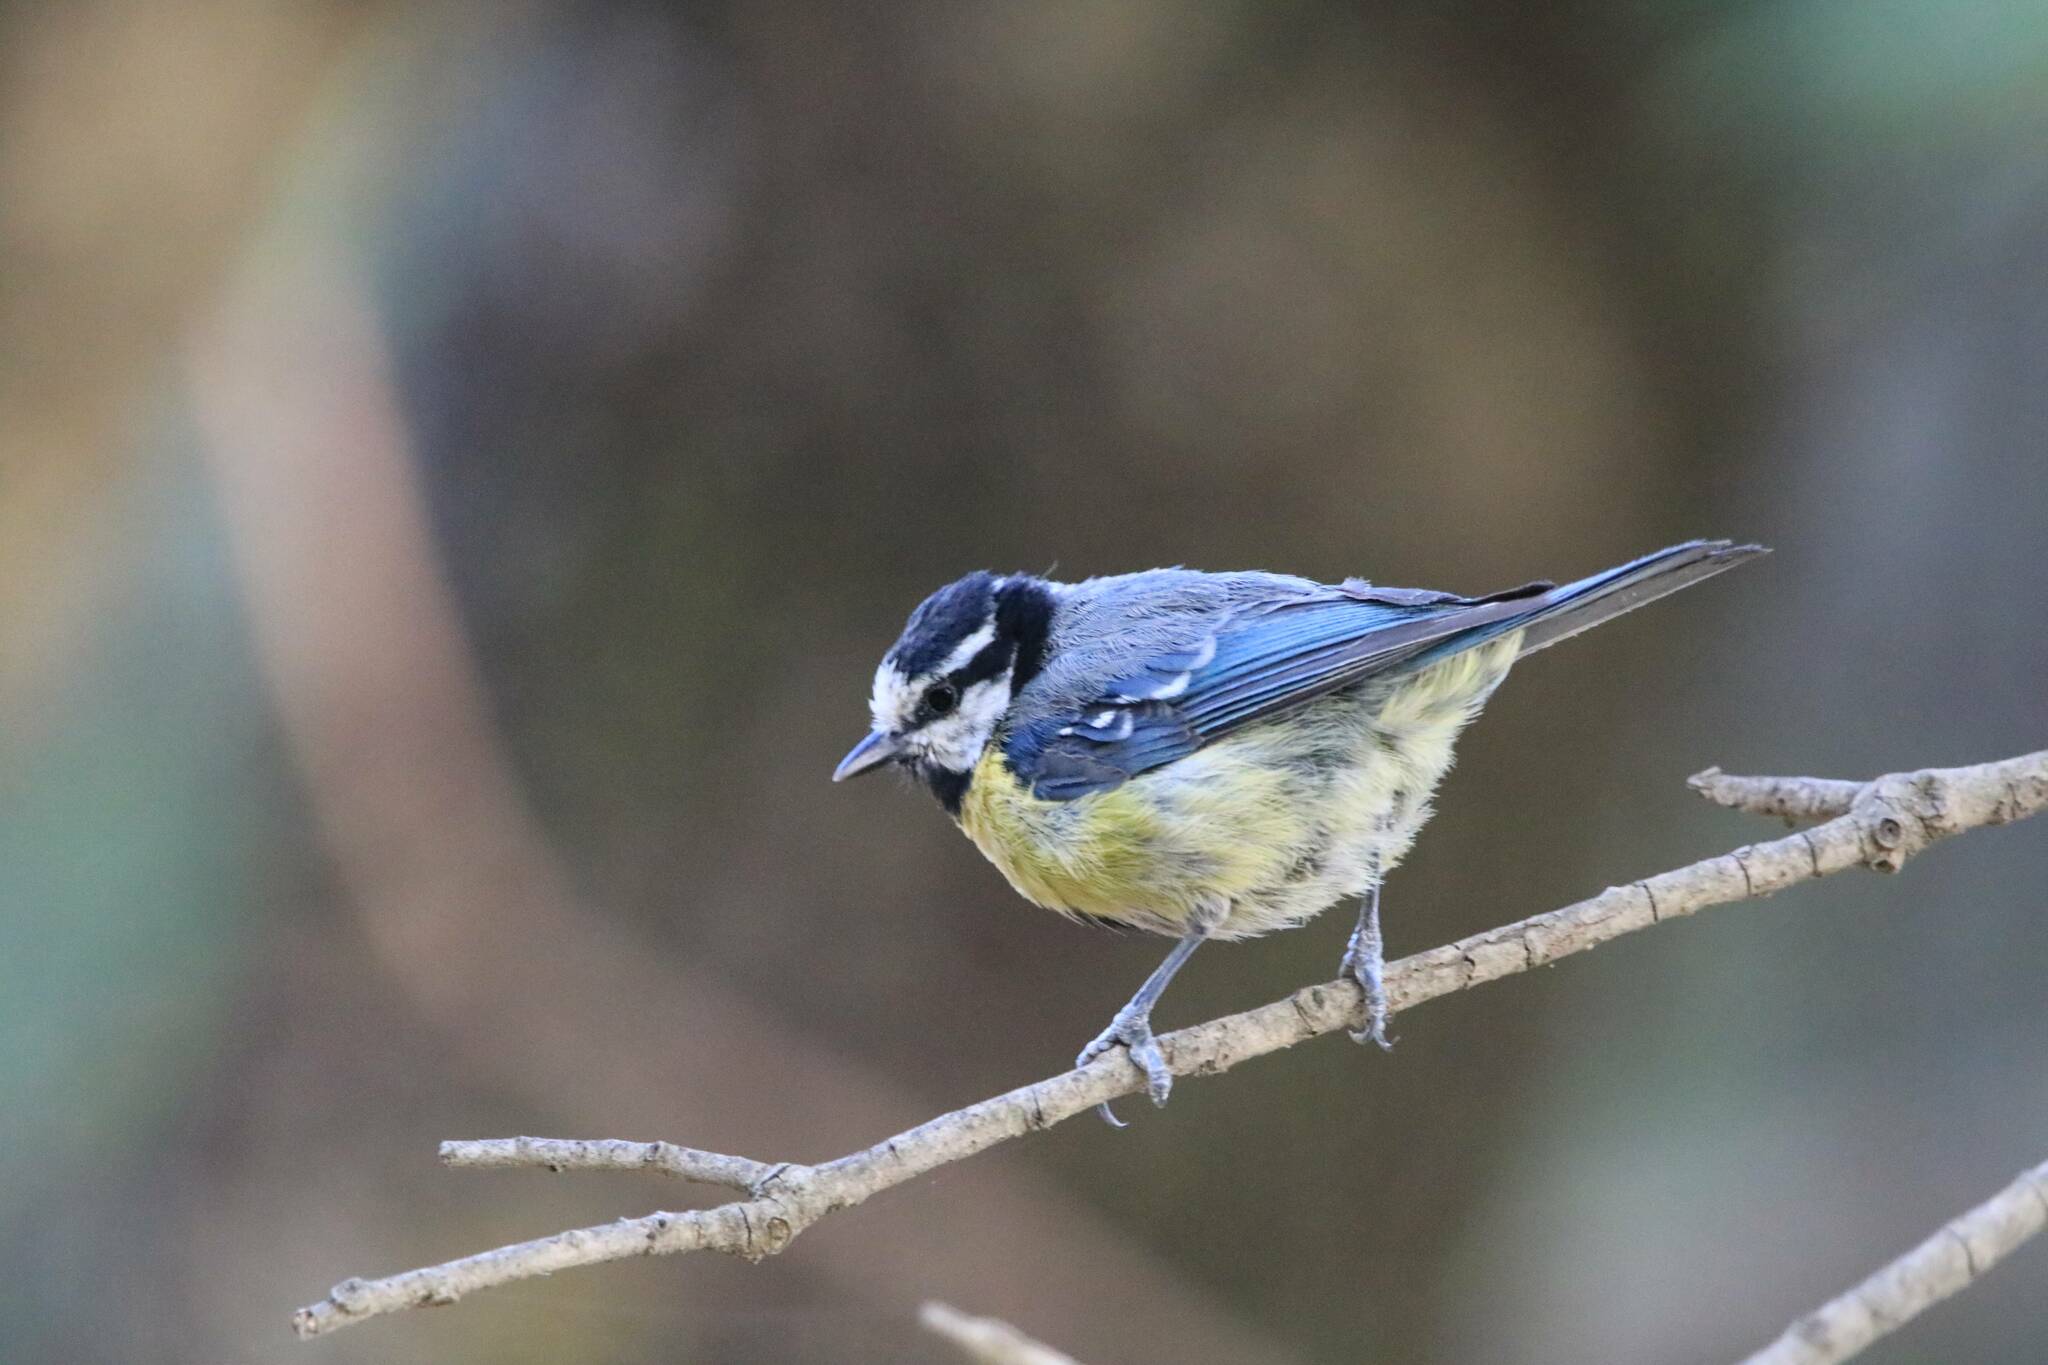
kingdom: Animalia
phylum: Chordata
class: Aves
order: Passeriformes
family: Paridae
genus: Cyanistes
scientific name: Cyanistes teneriffae
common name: African blue tit
